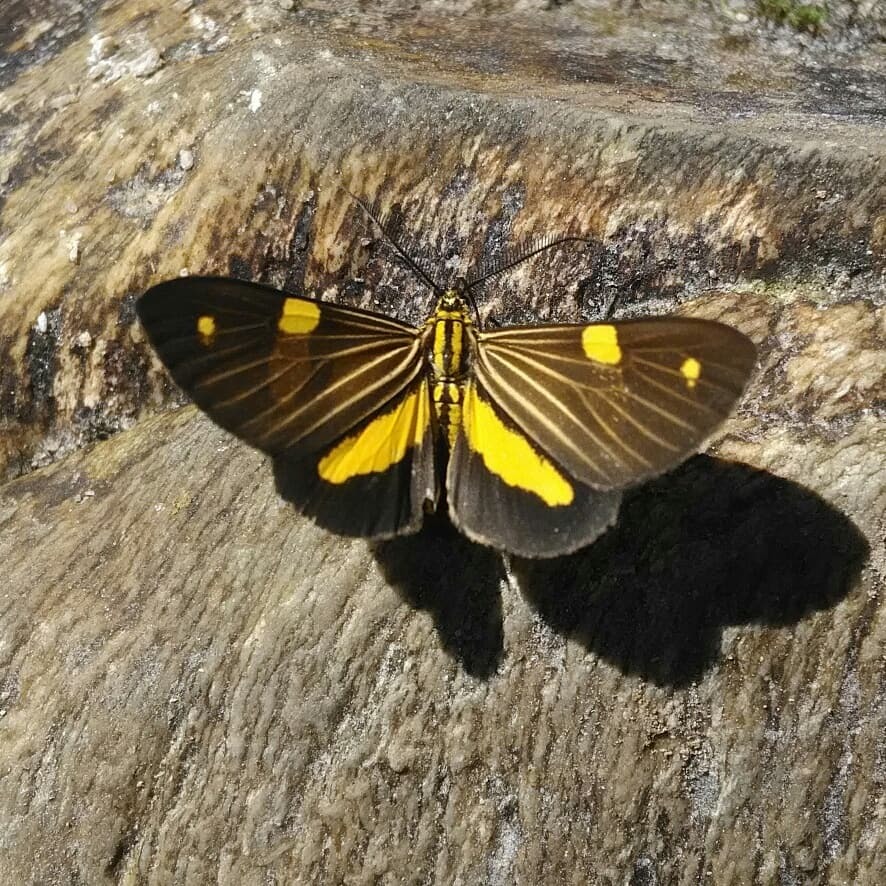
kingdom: Animalia
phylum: Arthropoda
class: Insecta
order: Lepidoptera
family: Notodontidae
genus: Phaeochlaena
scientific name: Phaeochlaena
